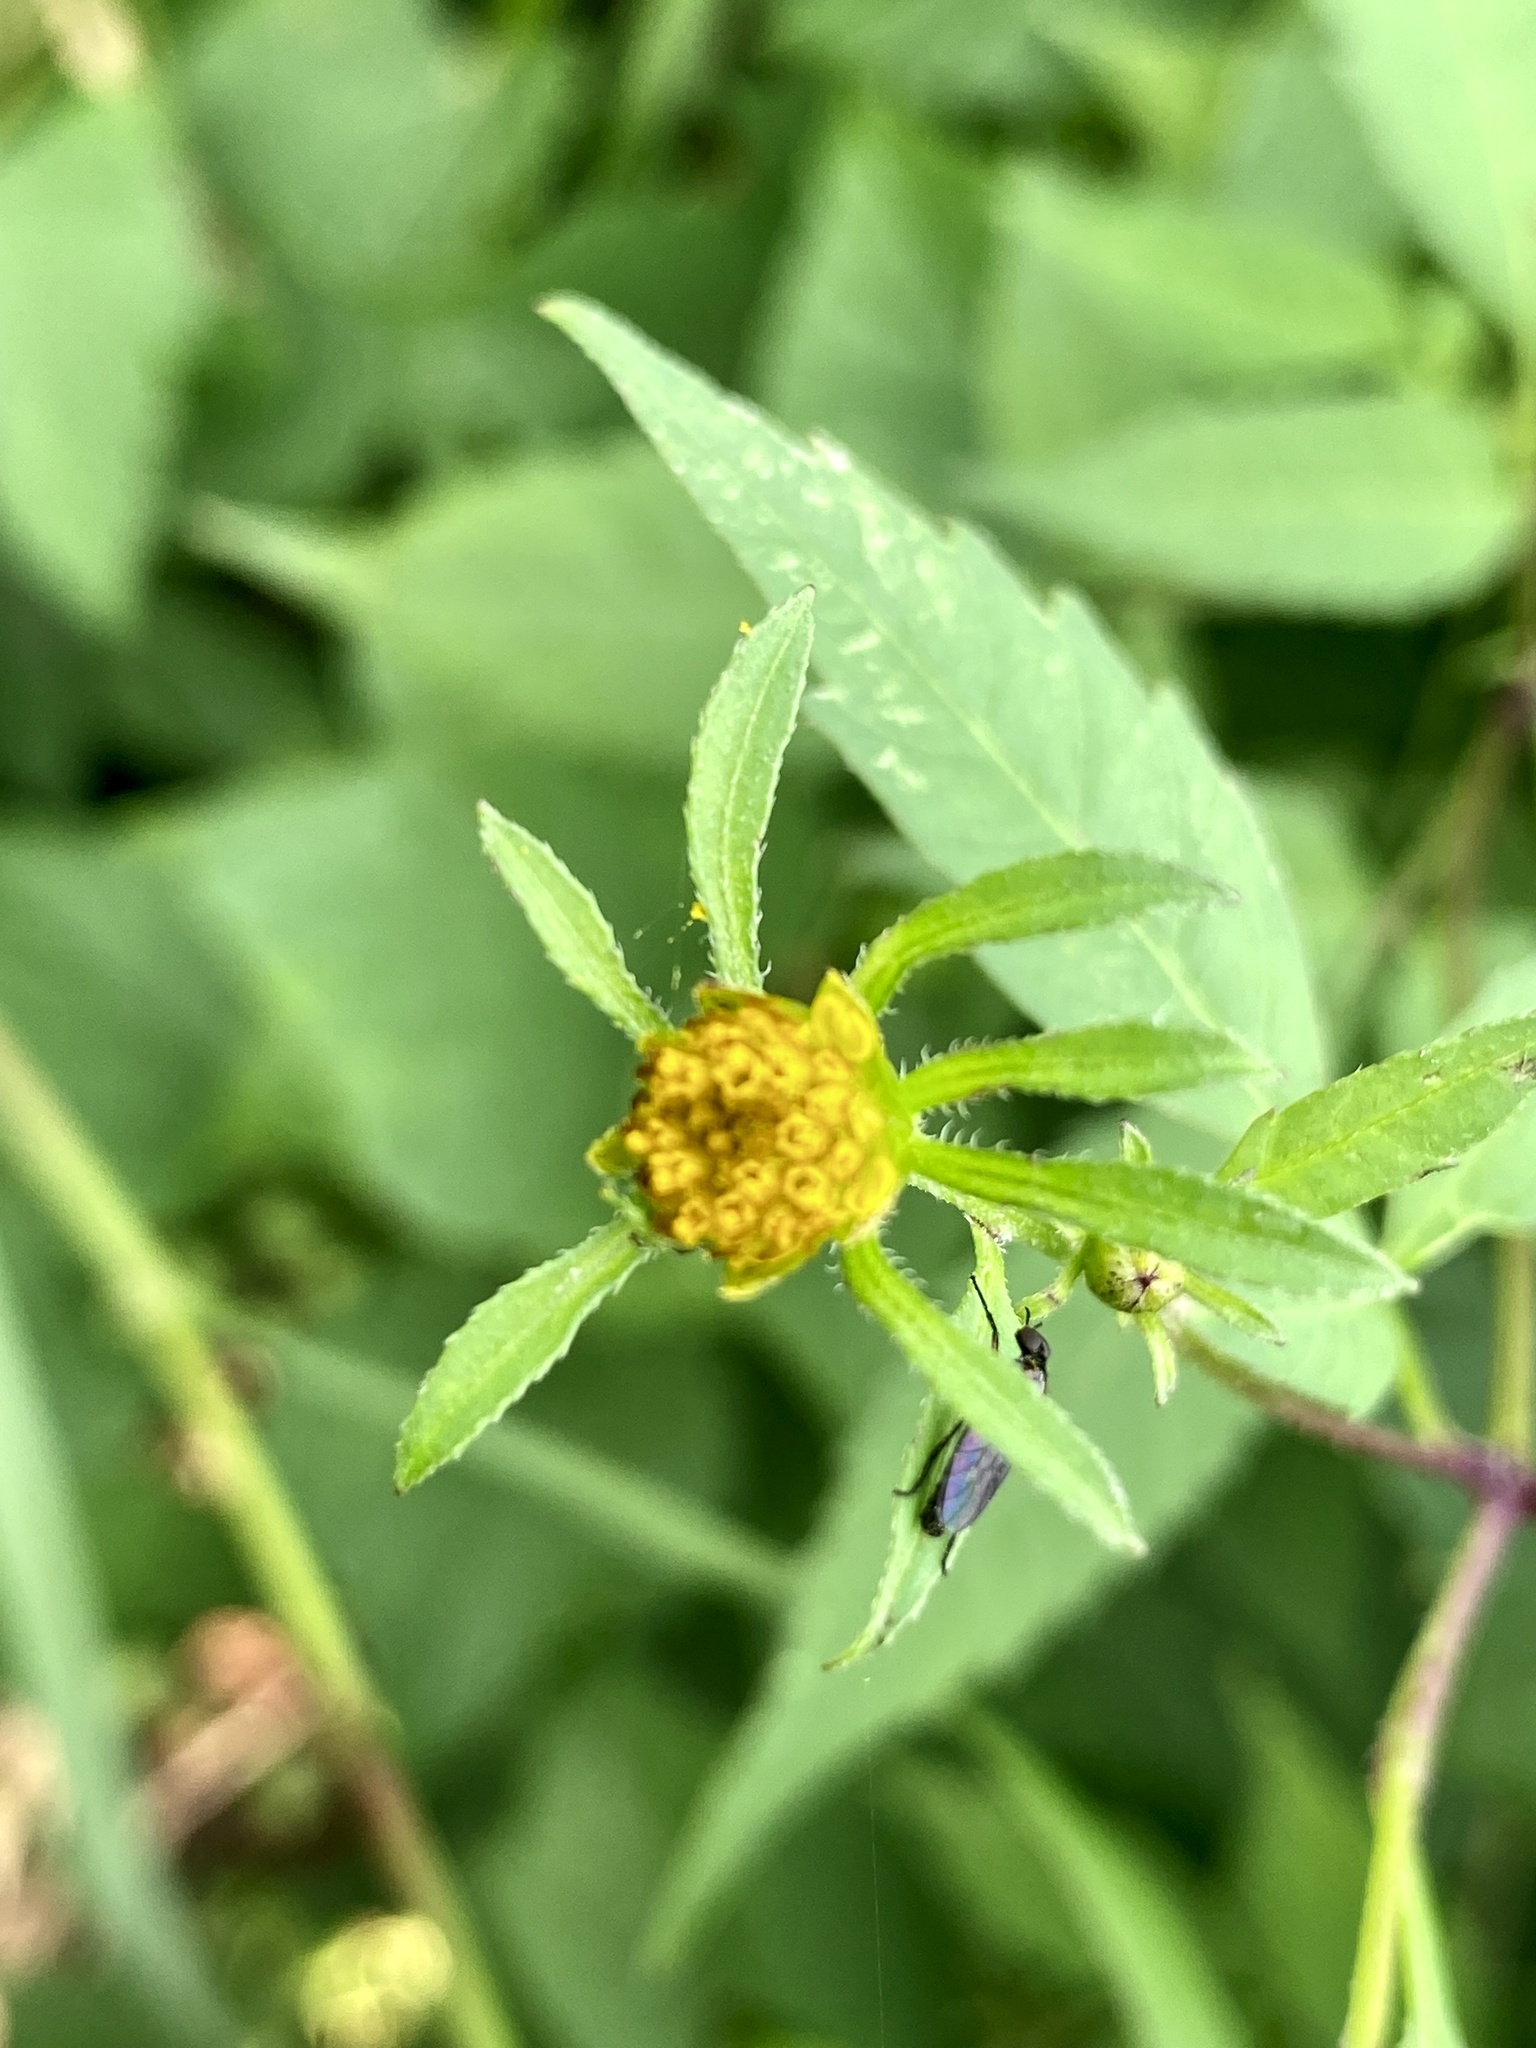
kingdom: Plantae
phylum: Tracheophyta
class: Magnoliopsida
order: Asterales
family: Asteraceae
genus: Bidens
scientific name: Bidens frondosa
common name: Beggarticks
